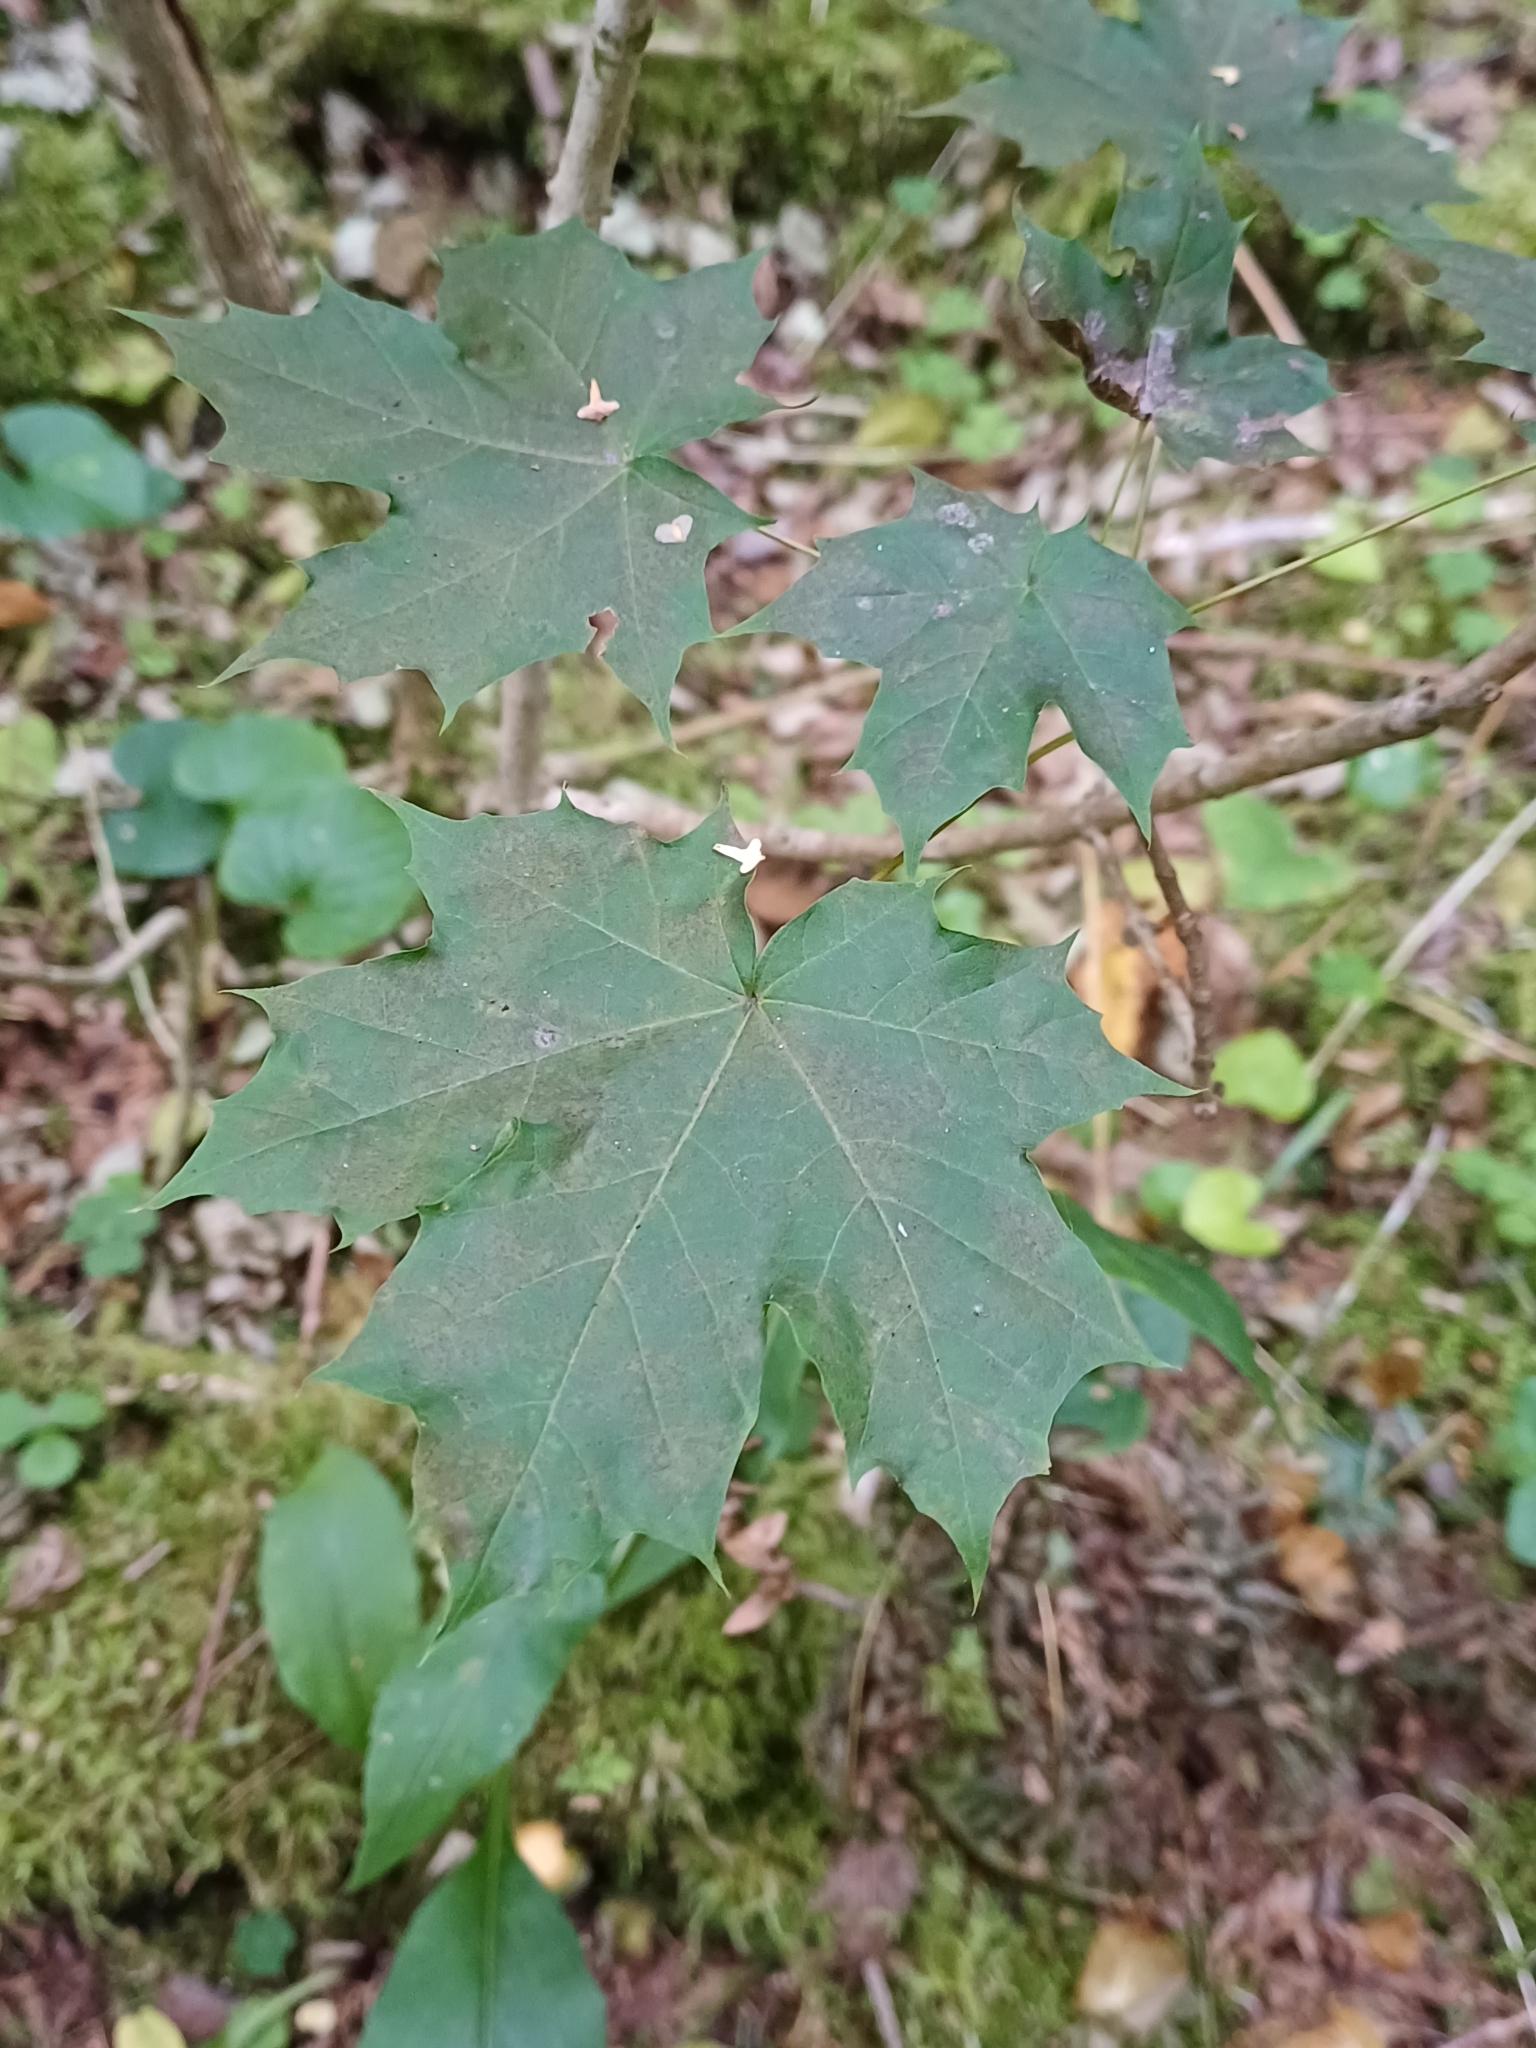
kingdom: Plantae
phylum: Tracheophyta
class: Magnoliopsida
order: Sapindales
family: Sapindaceae
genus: Acer
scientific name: Acer platanoides
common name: Norway maple
